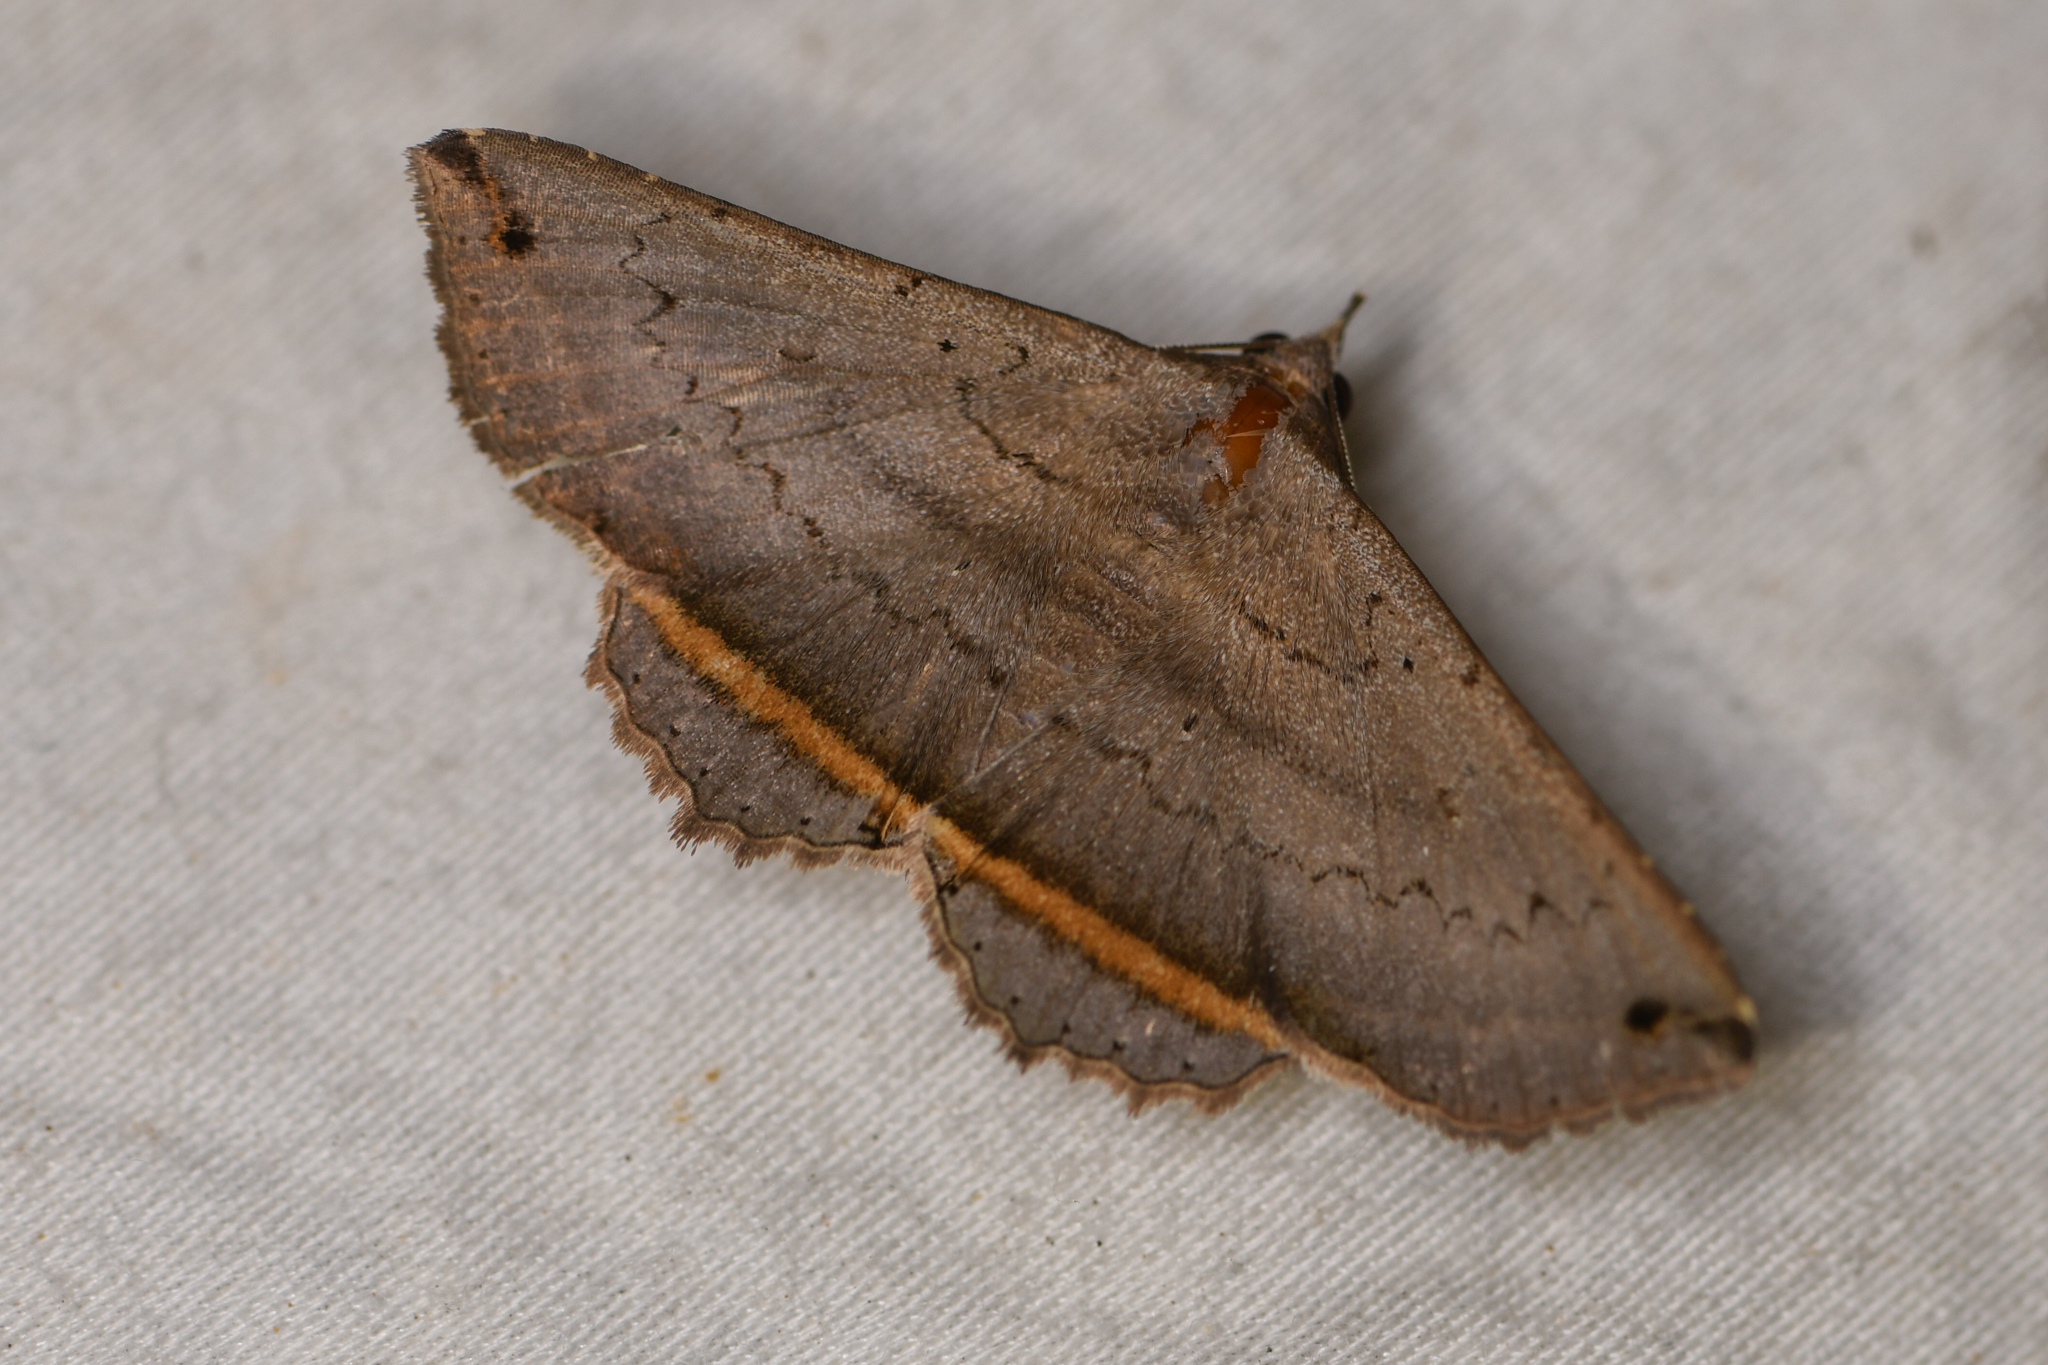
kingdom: Animalia
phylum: Arthropoda
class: Insecta
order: Lepidoptera
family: Erebidae
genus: Lesmone
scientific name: Lesmone formularis
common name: Lesmone moth
